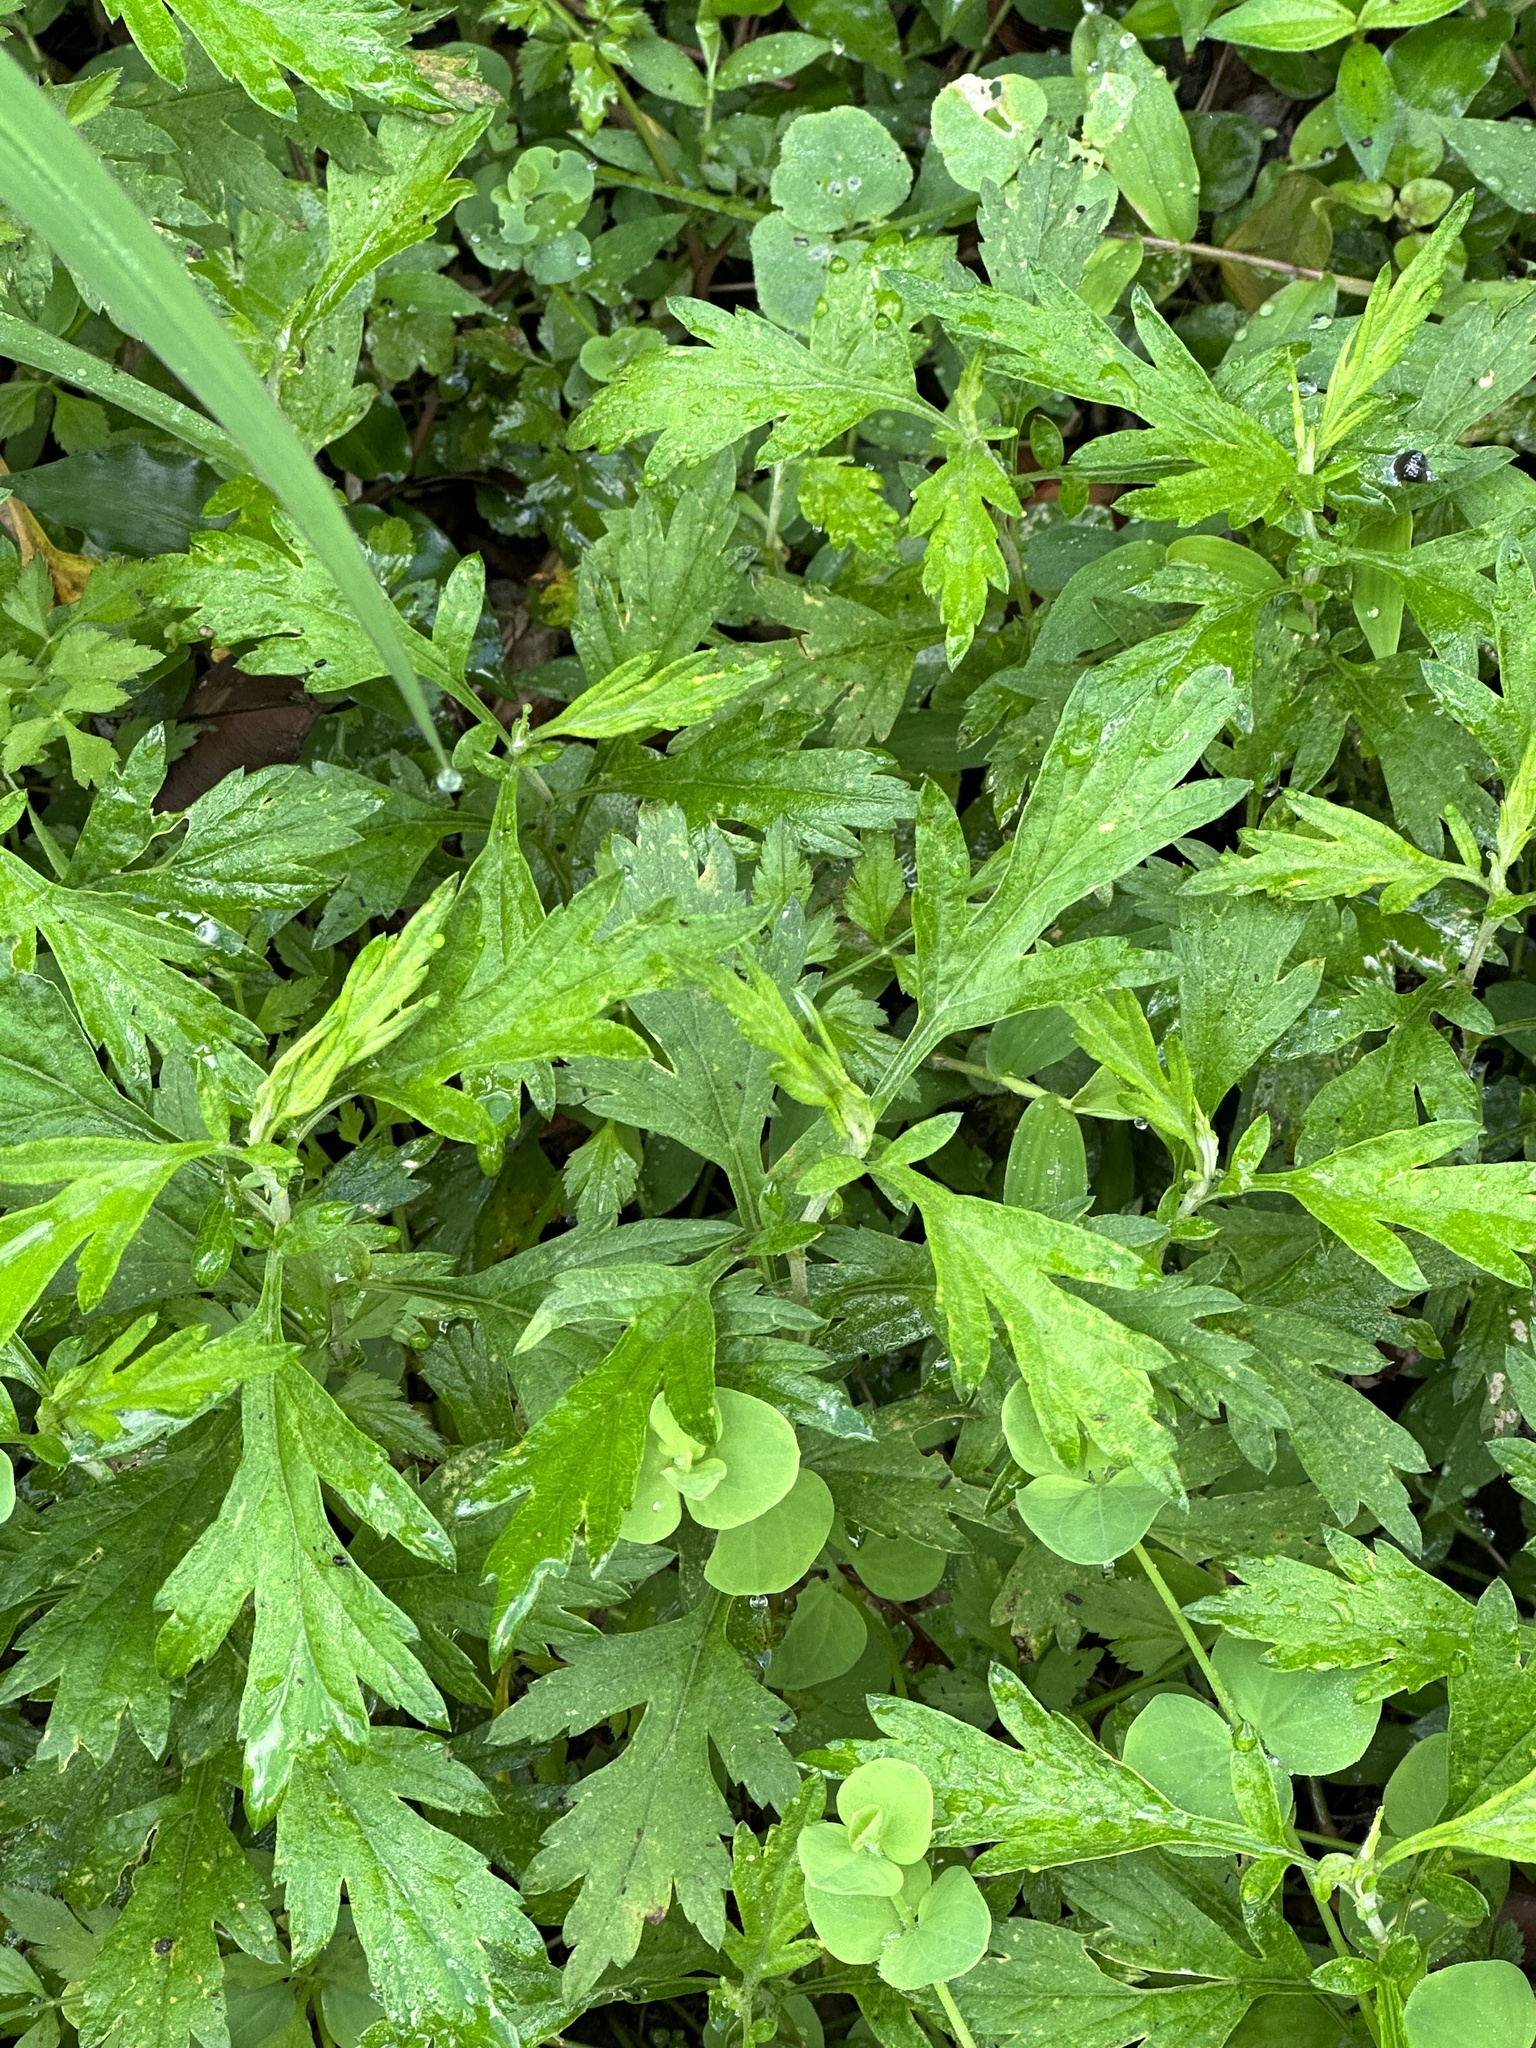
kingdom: Plantae
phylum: Tracheophyta
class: Magnoliopsida
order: Asterales
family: Asteraceae
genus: Artemisia
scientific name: Artemisia indica
